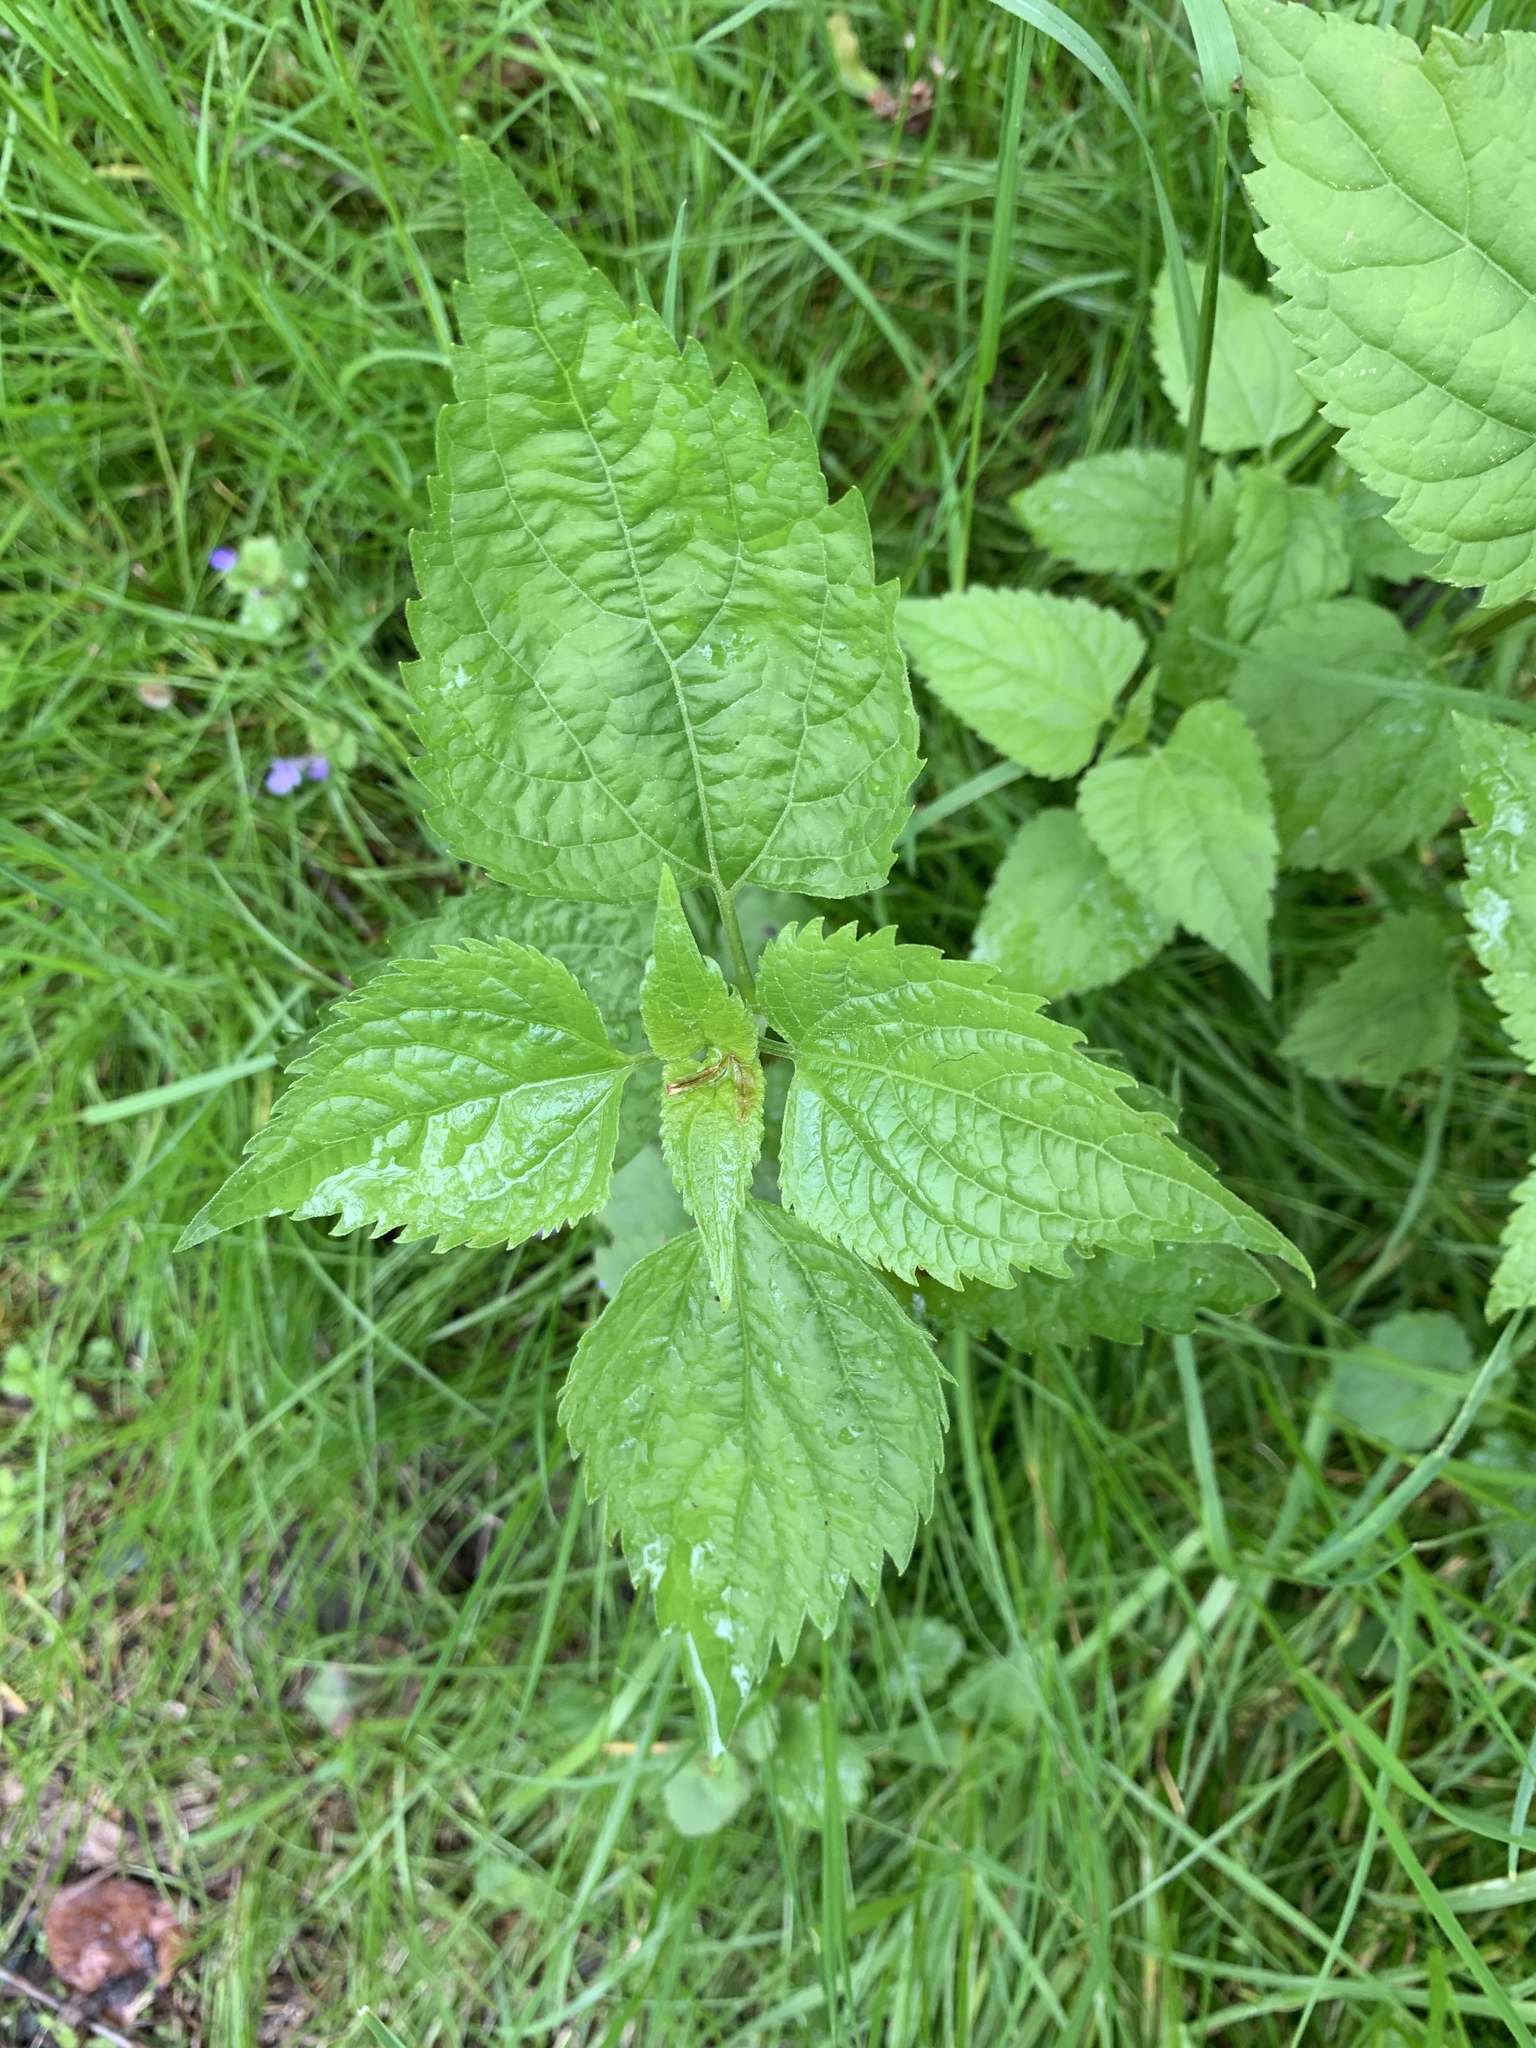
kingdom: Plantae
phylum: Tracheophyta
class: Magnoliopsida
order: Asterales
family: Asteraceae
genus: Ageratina
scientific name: Ageratina altissima
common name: White snakeroot
